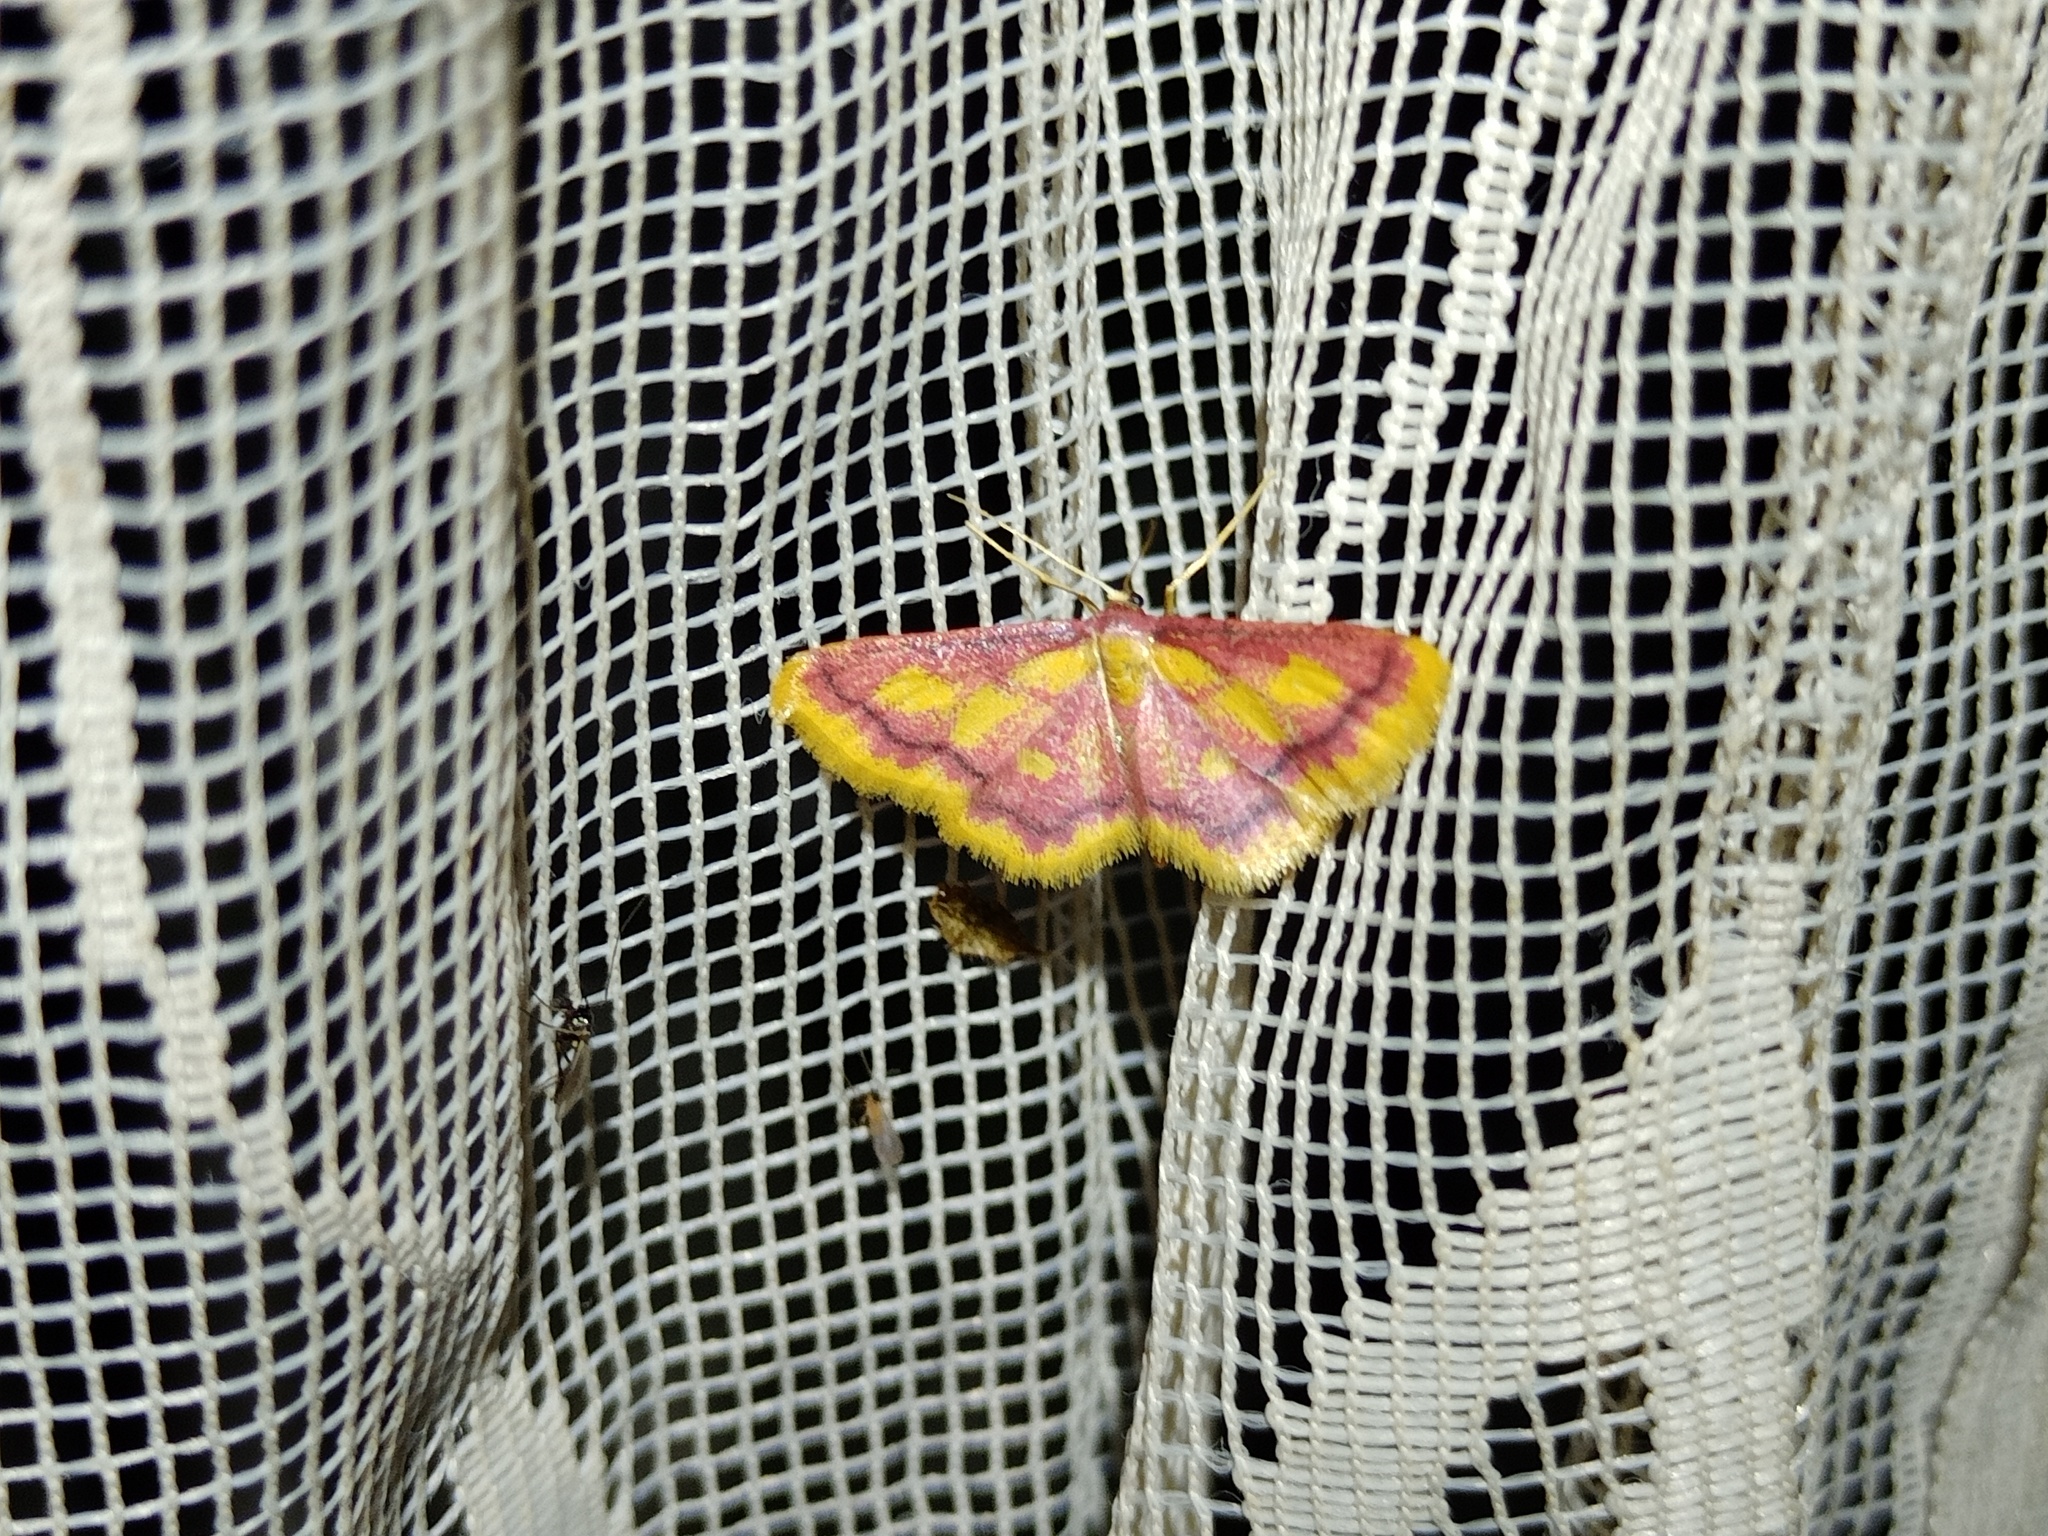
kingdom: Animalia
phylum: Arthropoda
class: Insecta
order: Lepidoptera
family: Geometridae
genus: Idaea
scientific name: Idaea muricata
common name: Purple-bordered gold
